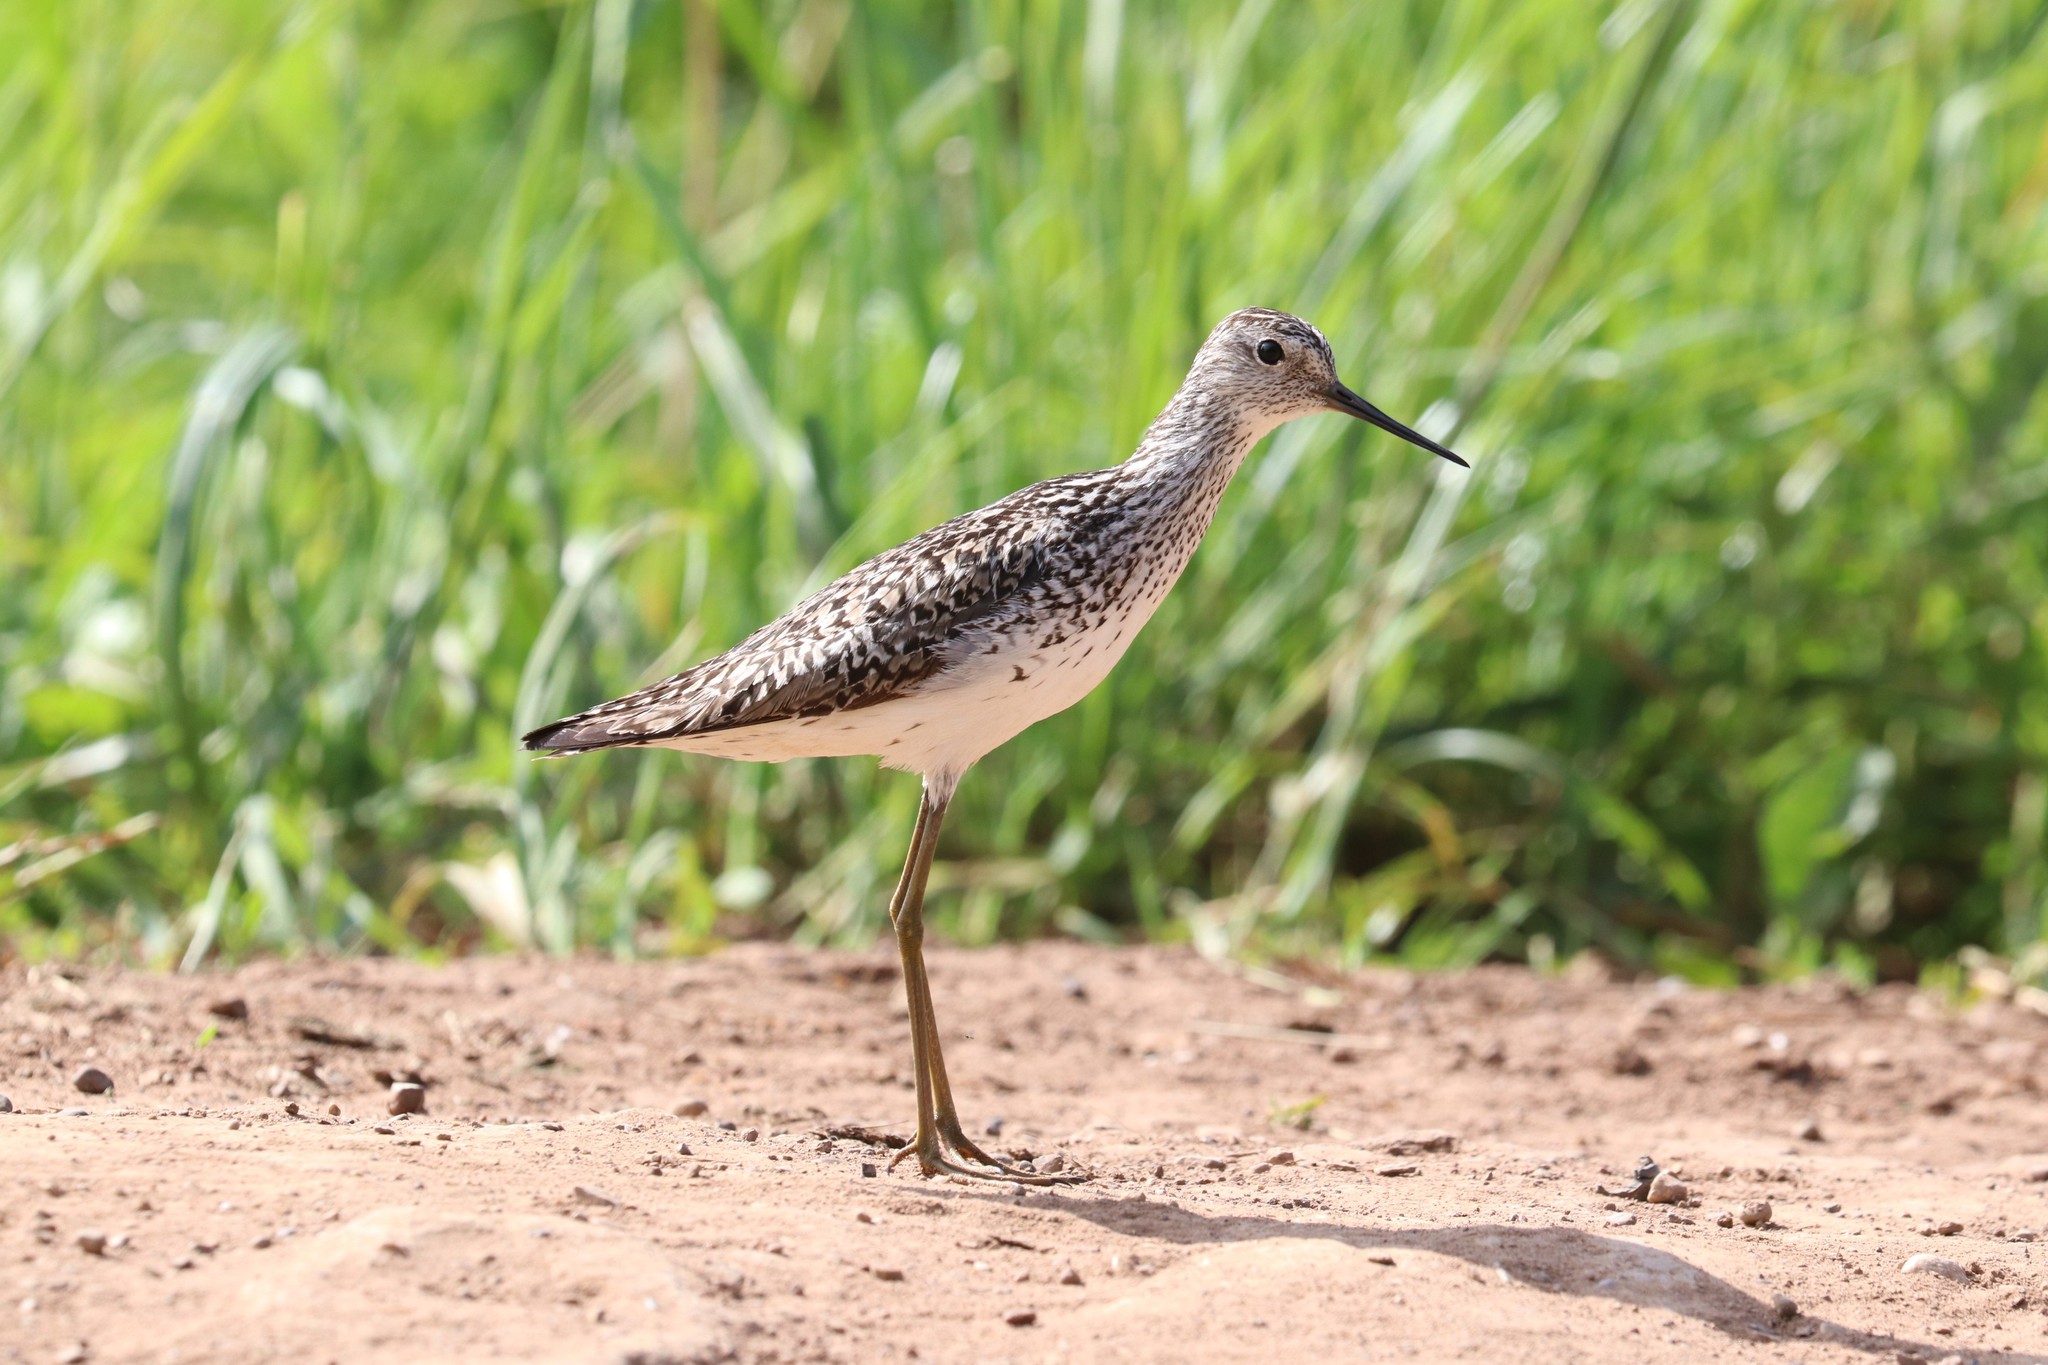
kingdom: Animalia
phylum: Chordata
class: Aves
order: Charadriiformes
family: Scolopacidae
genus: Tringa
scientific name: Tringa stagnatilis
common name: Marsh sandpiper
